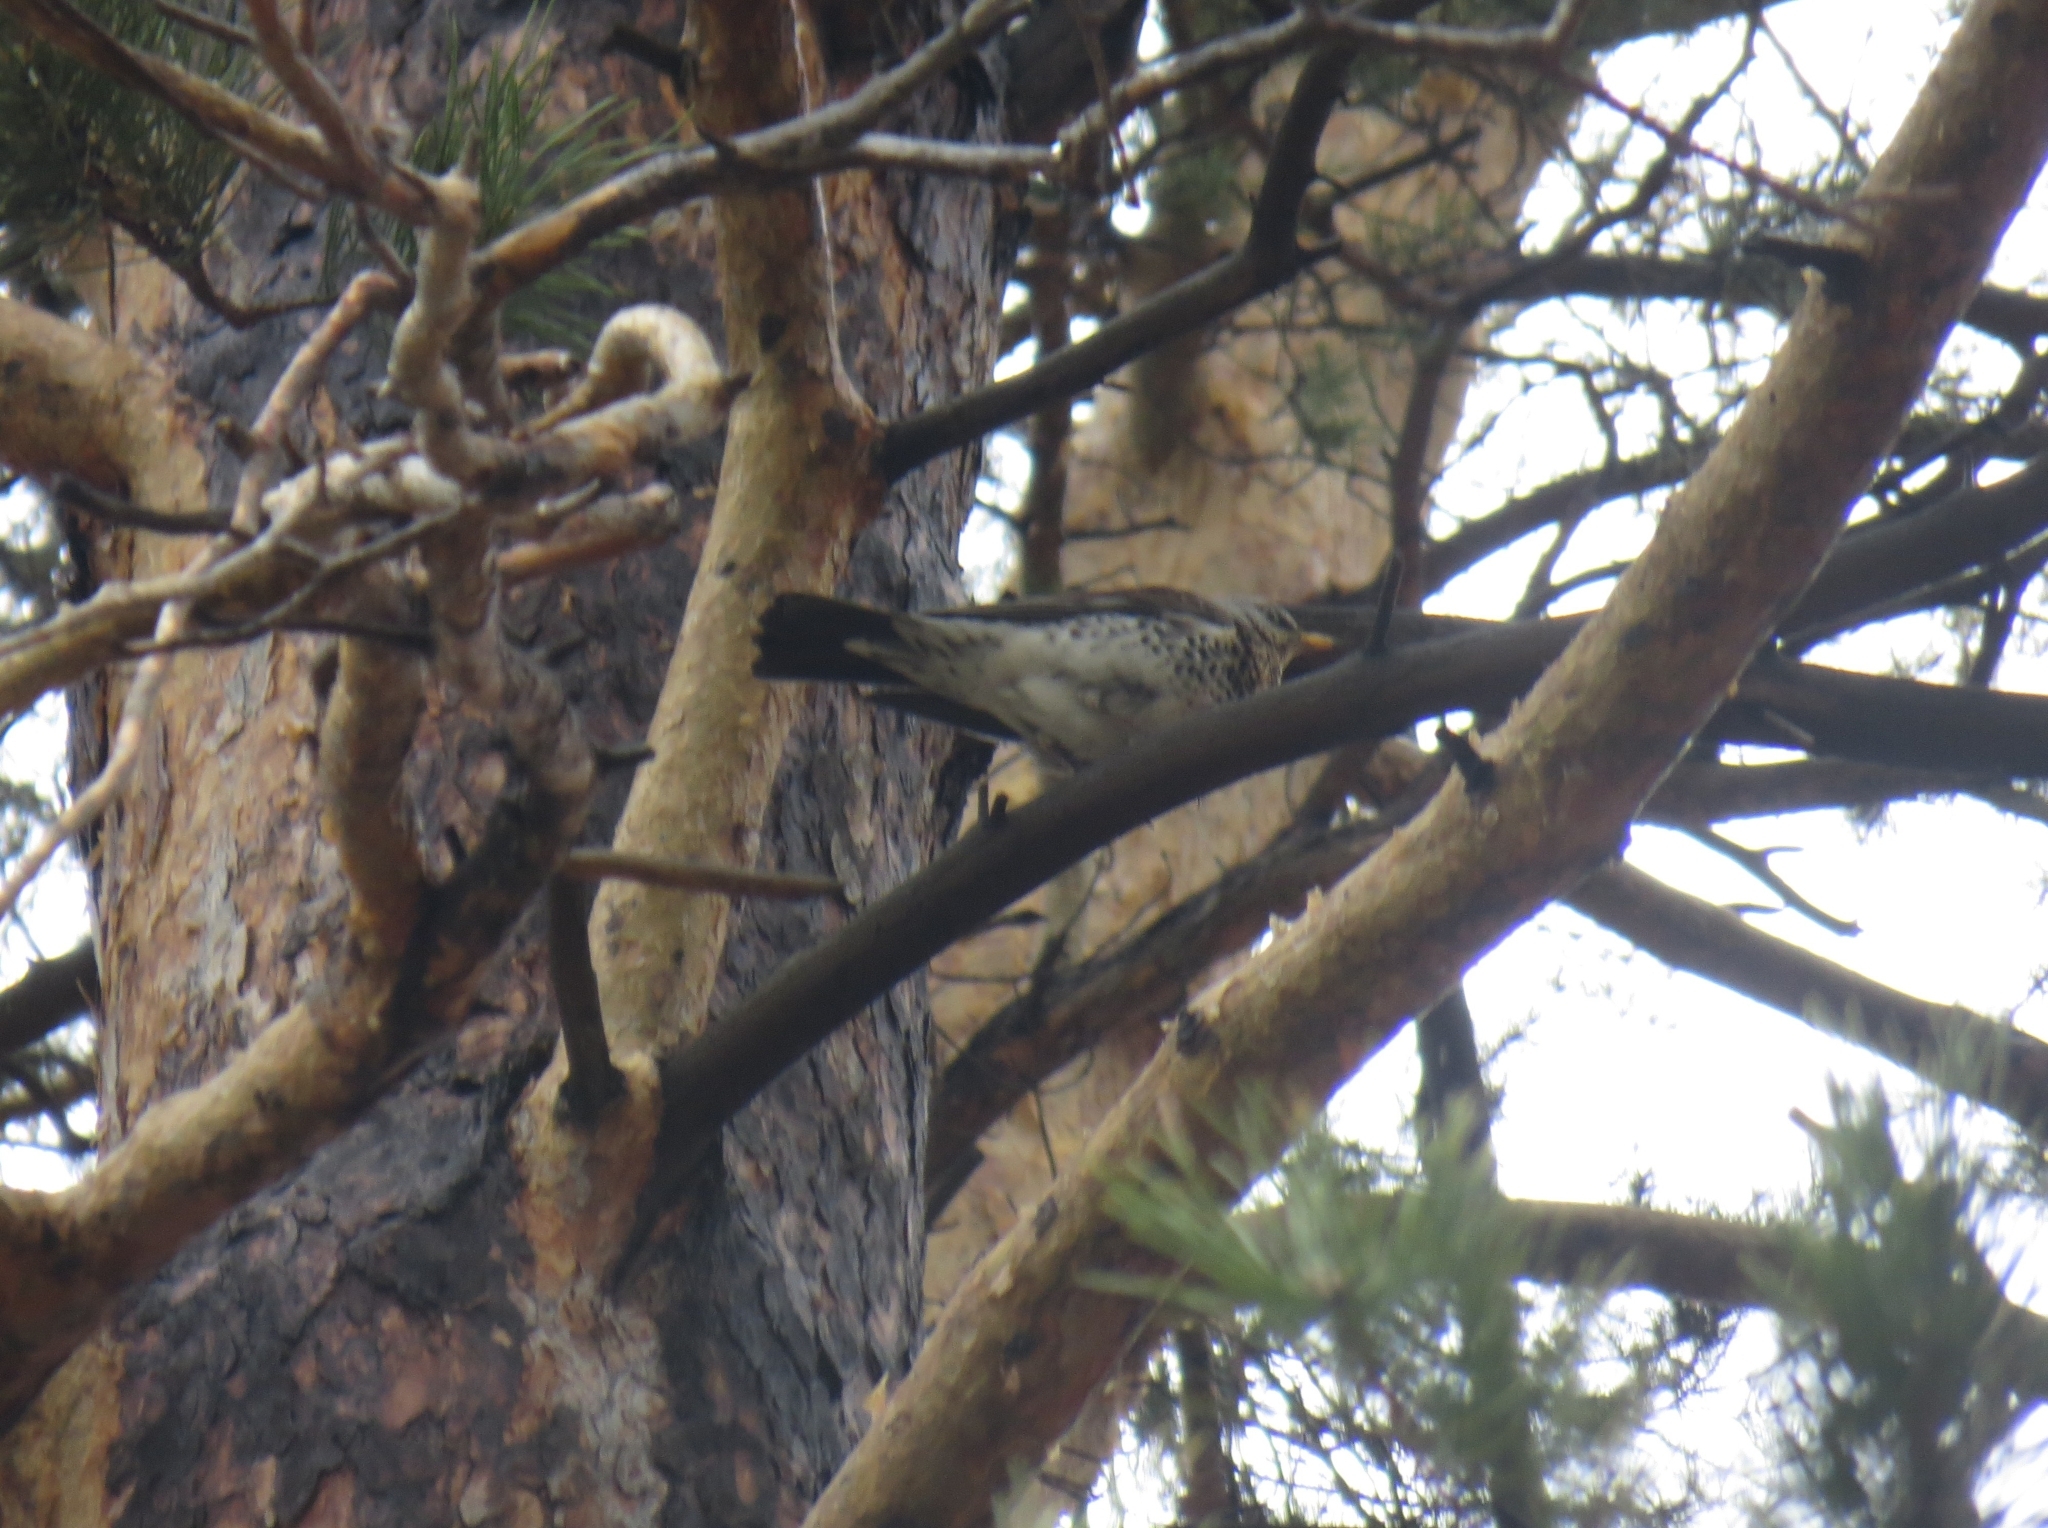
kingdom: Animalia
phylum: Chordata
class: Aves
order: Passeriformes
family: Turdidae
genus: Turdus
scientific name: Turdus pilaris
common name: Fieldfare
